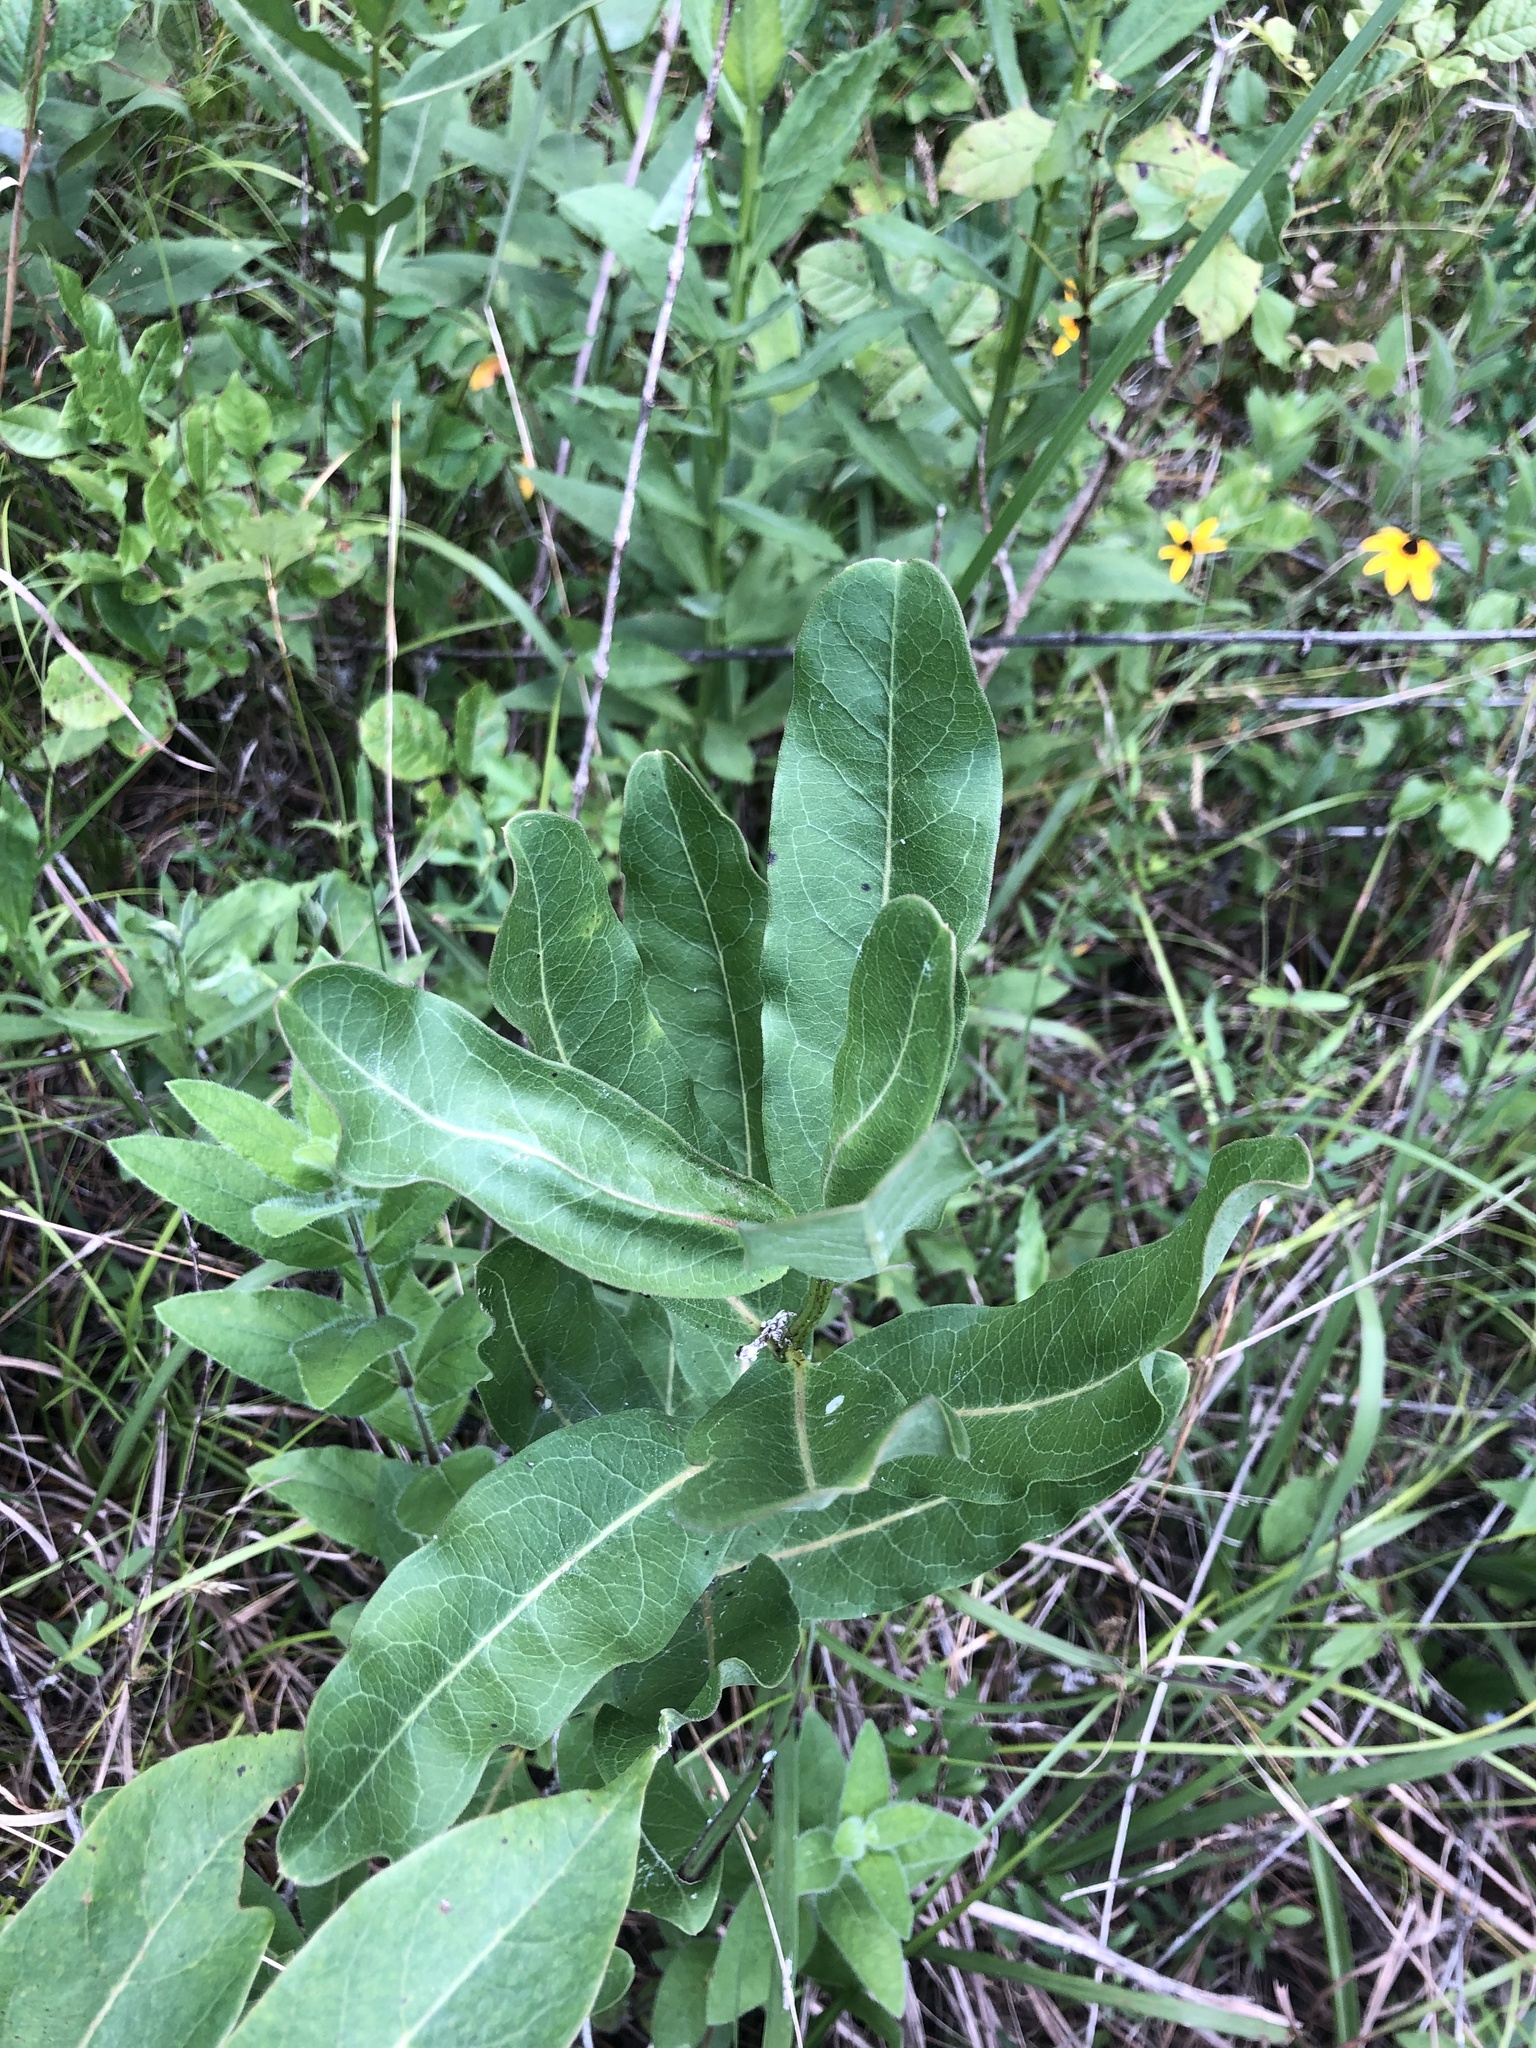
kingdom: Plantae
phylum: Tracheophyta
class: Magnoliopsida
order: Gentianales
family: Apocynaceae
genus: Asclepias
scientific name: Asclepias viridis
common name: Antelope-horns
